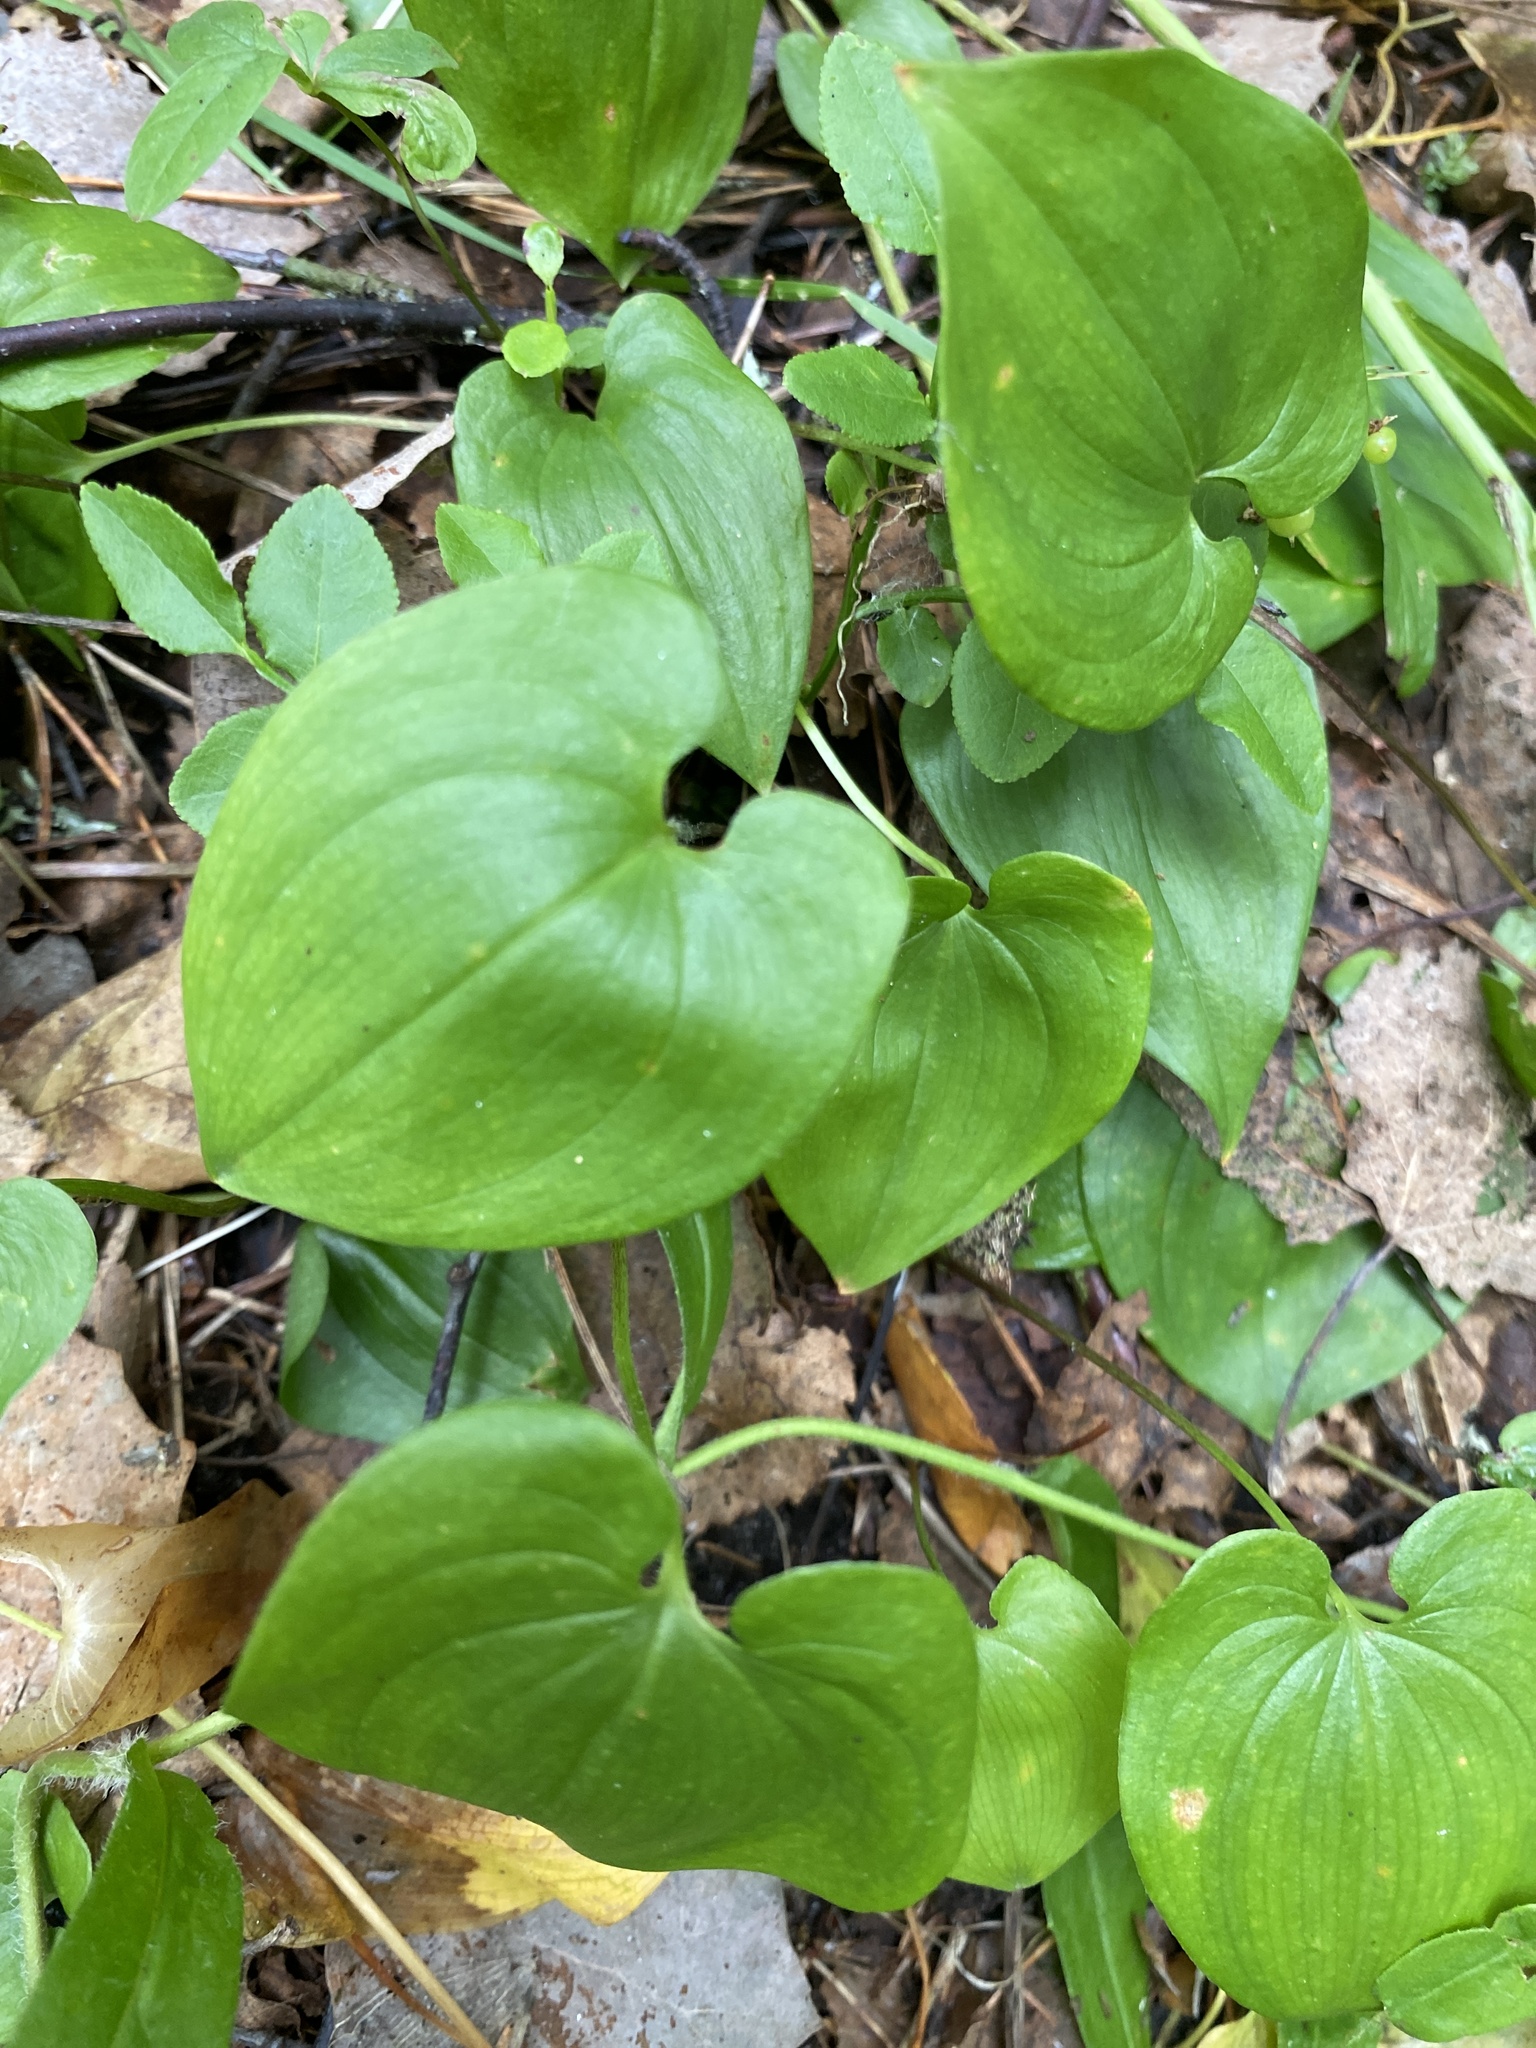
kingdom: Plantae
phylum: Tracheophyta
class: Liliopsida
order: Asparagales
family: Asparagaceae
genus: Maianthemum
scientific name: Maianthemum bifolium
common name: May lily
